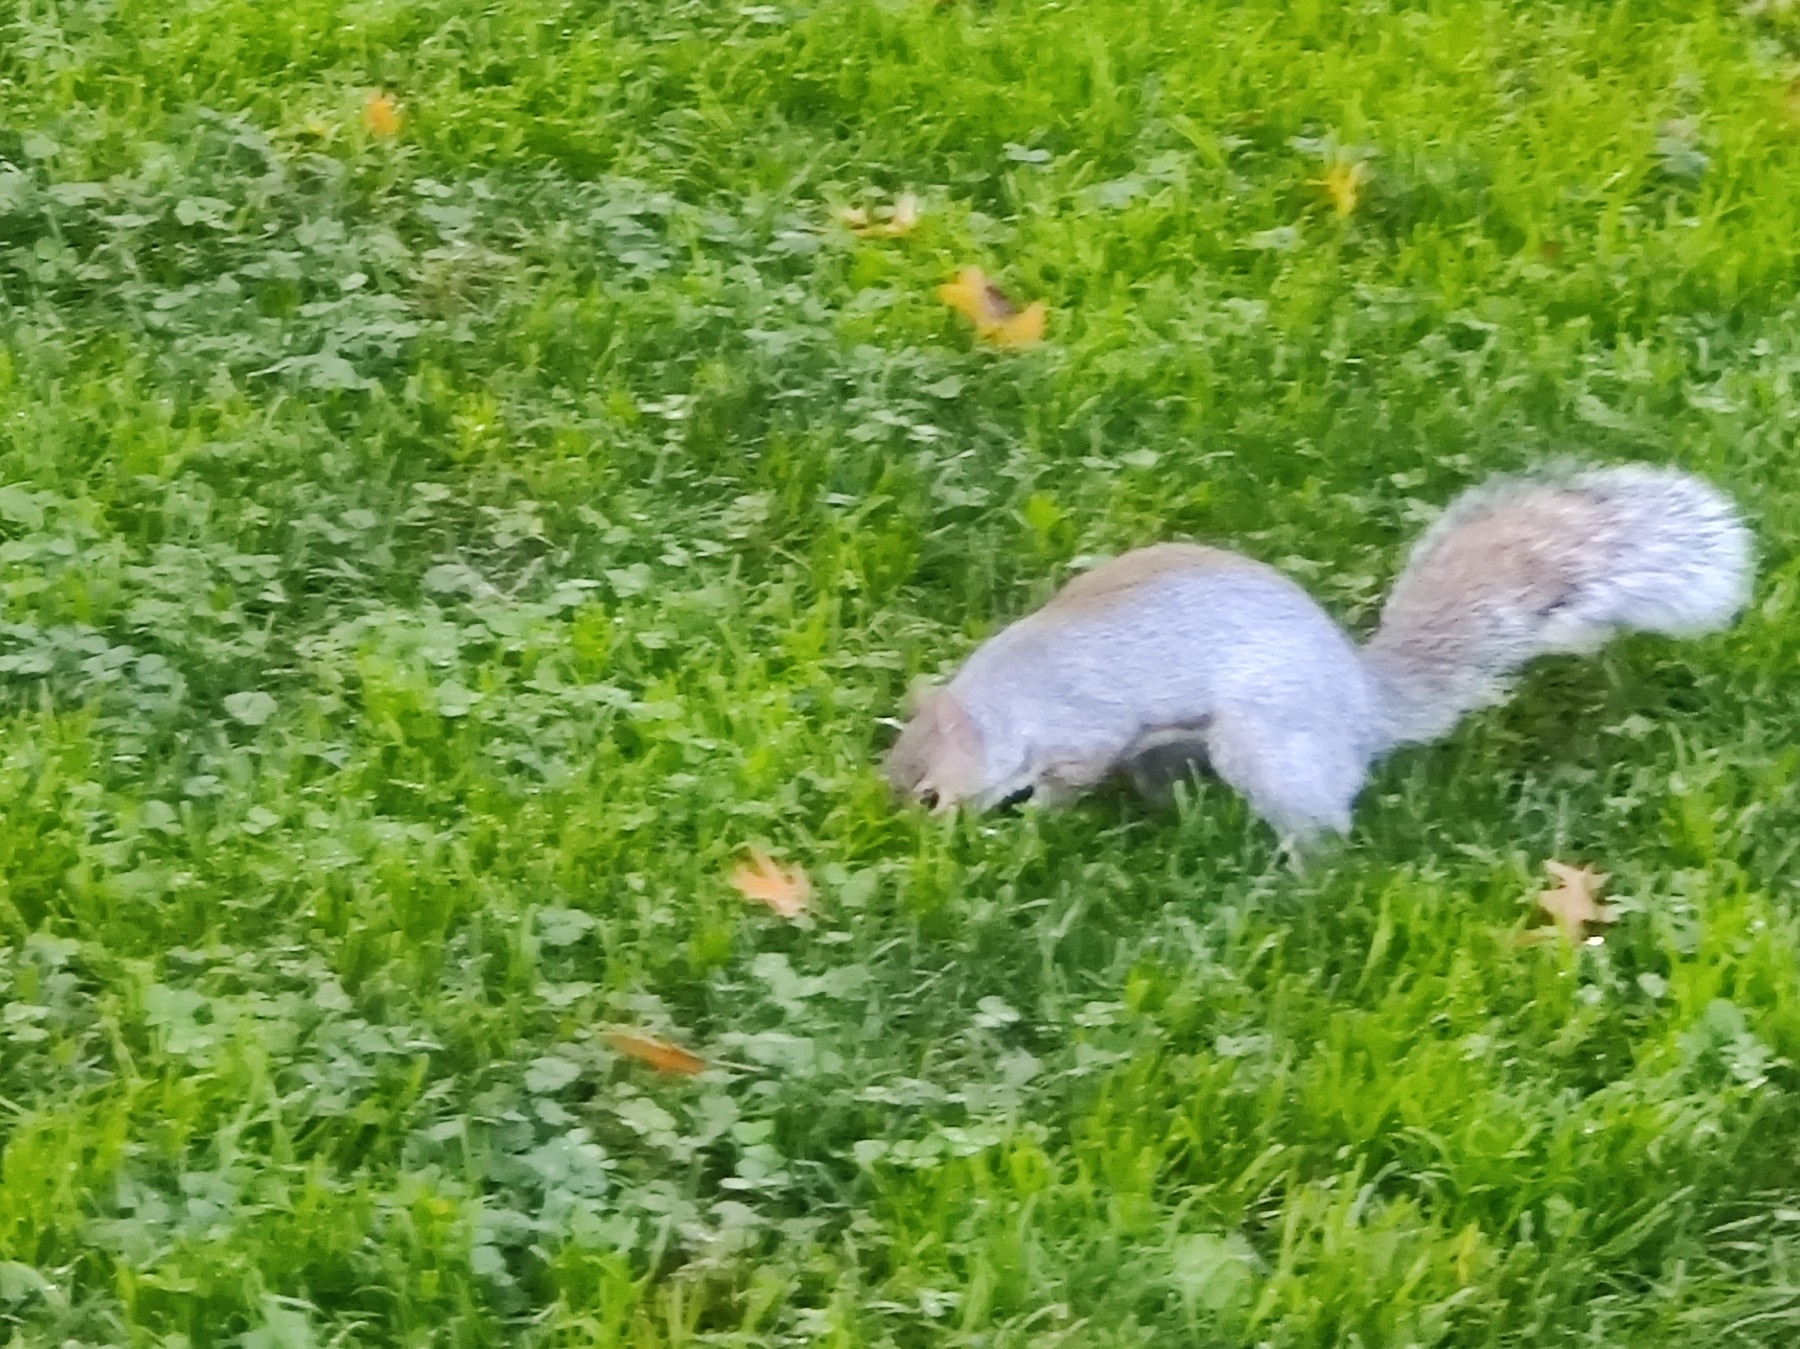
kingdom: Animalia
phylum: Chordata
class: Mammalia
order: Rodentia
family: Sciuridae
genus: Sciurus
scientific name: Sciurus carolinensis
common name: Eastern gray squirrel
